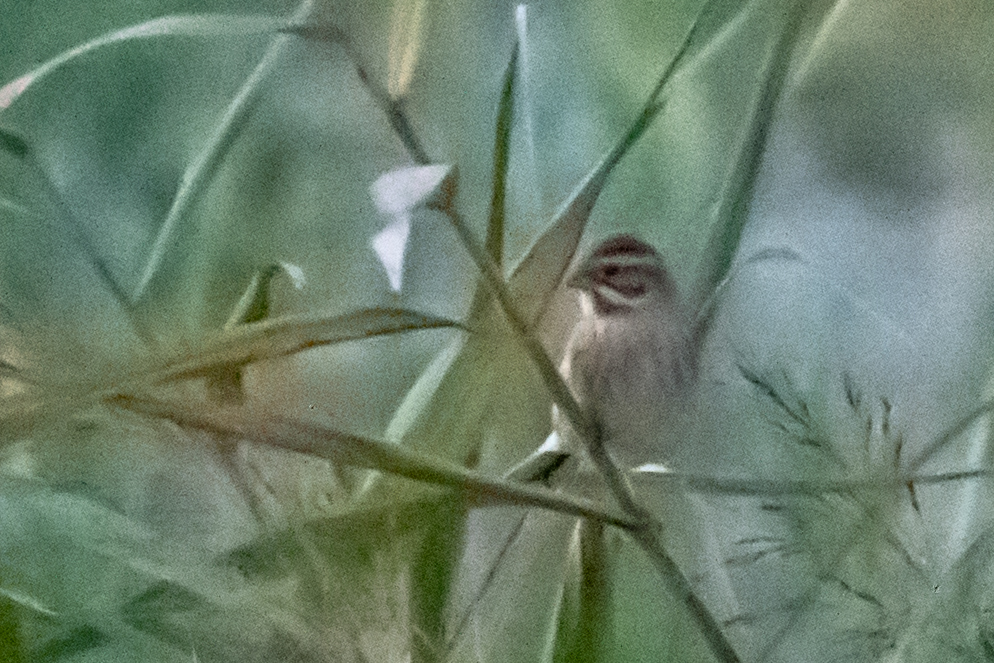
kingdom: Animalia
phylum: Chordata
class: Aves
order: Passeriformes
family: Emberizidae
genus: Emberiza
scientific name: Emberiza schoeniclus
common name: Reed bunting
